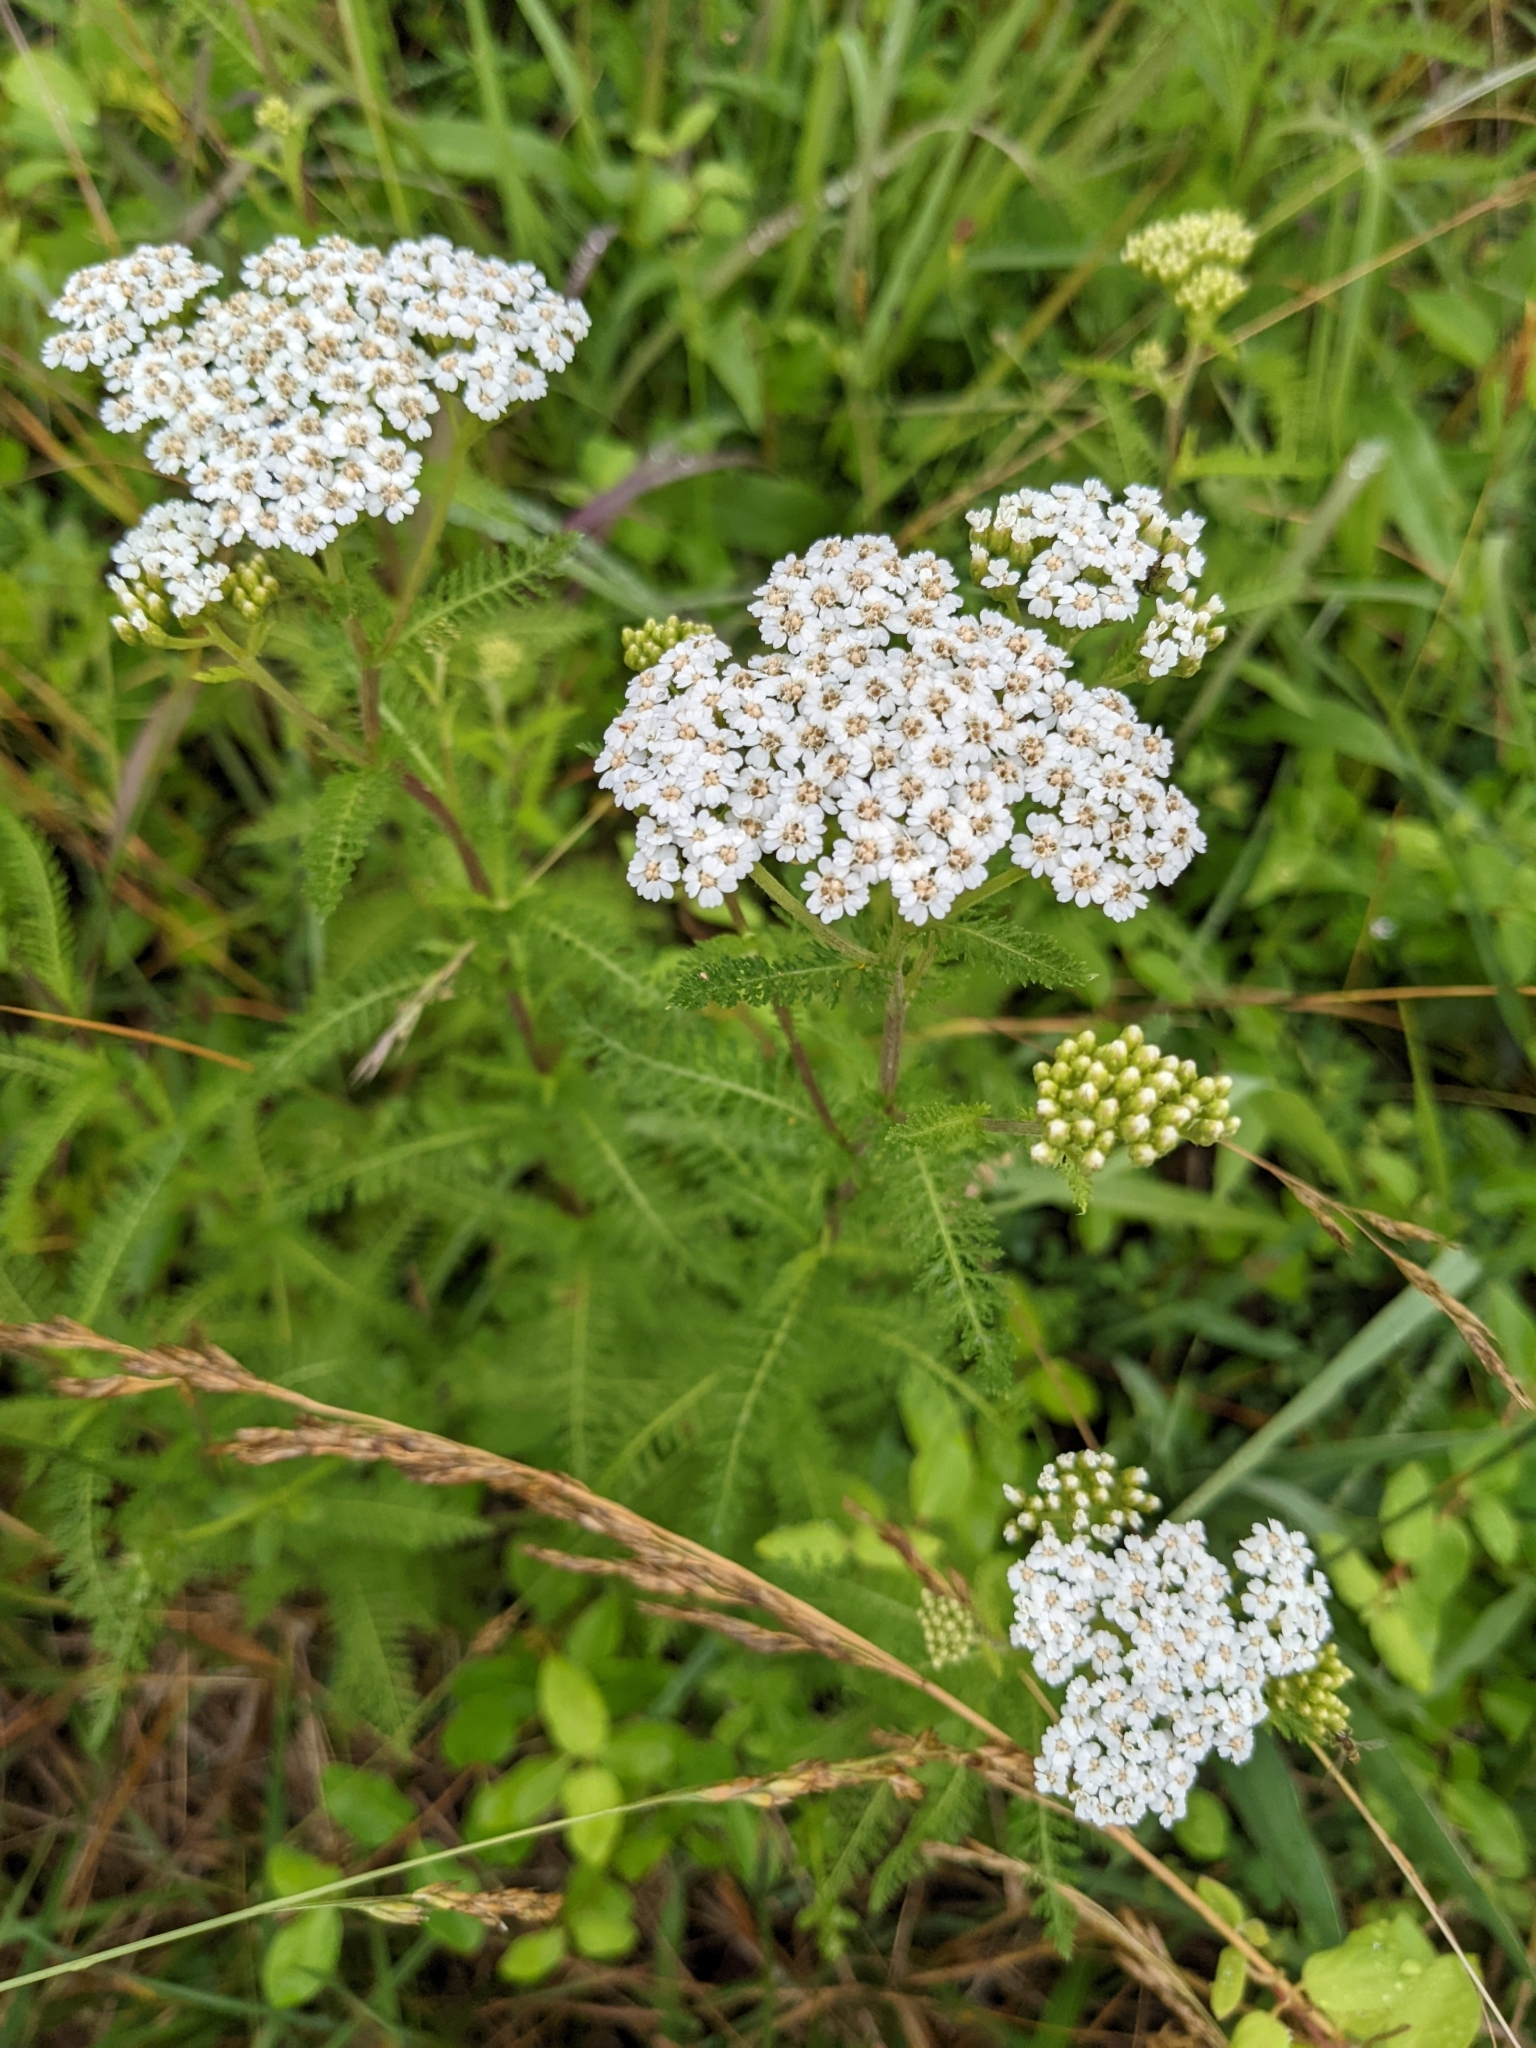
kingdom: Plantae
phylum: Tracheophyta
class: Magnoliopsida
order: Asterales
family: Asteraceae
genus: Achillea
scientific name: Achillea millefolium
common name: Yarrow
